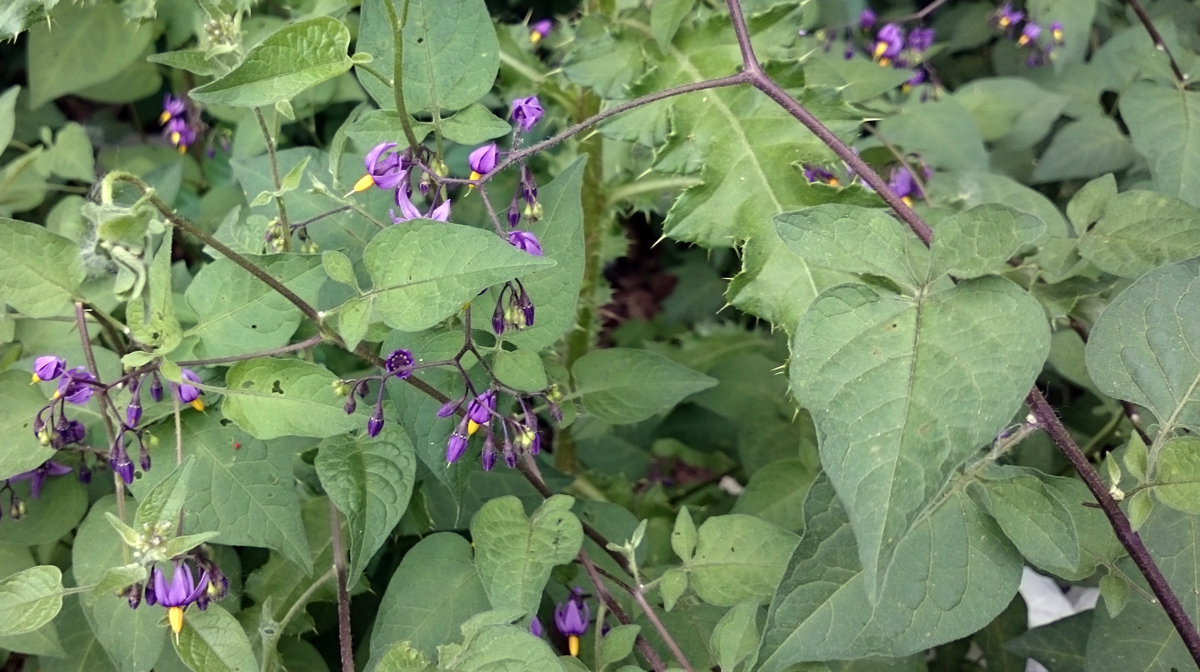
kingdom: Plantae
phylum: Tracheophyta
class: Magnoliopsida
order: Solanales
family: Solanaceae
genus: Solanum
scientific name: Solanum dulcamara
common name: Climbing nightshade
